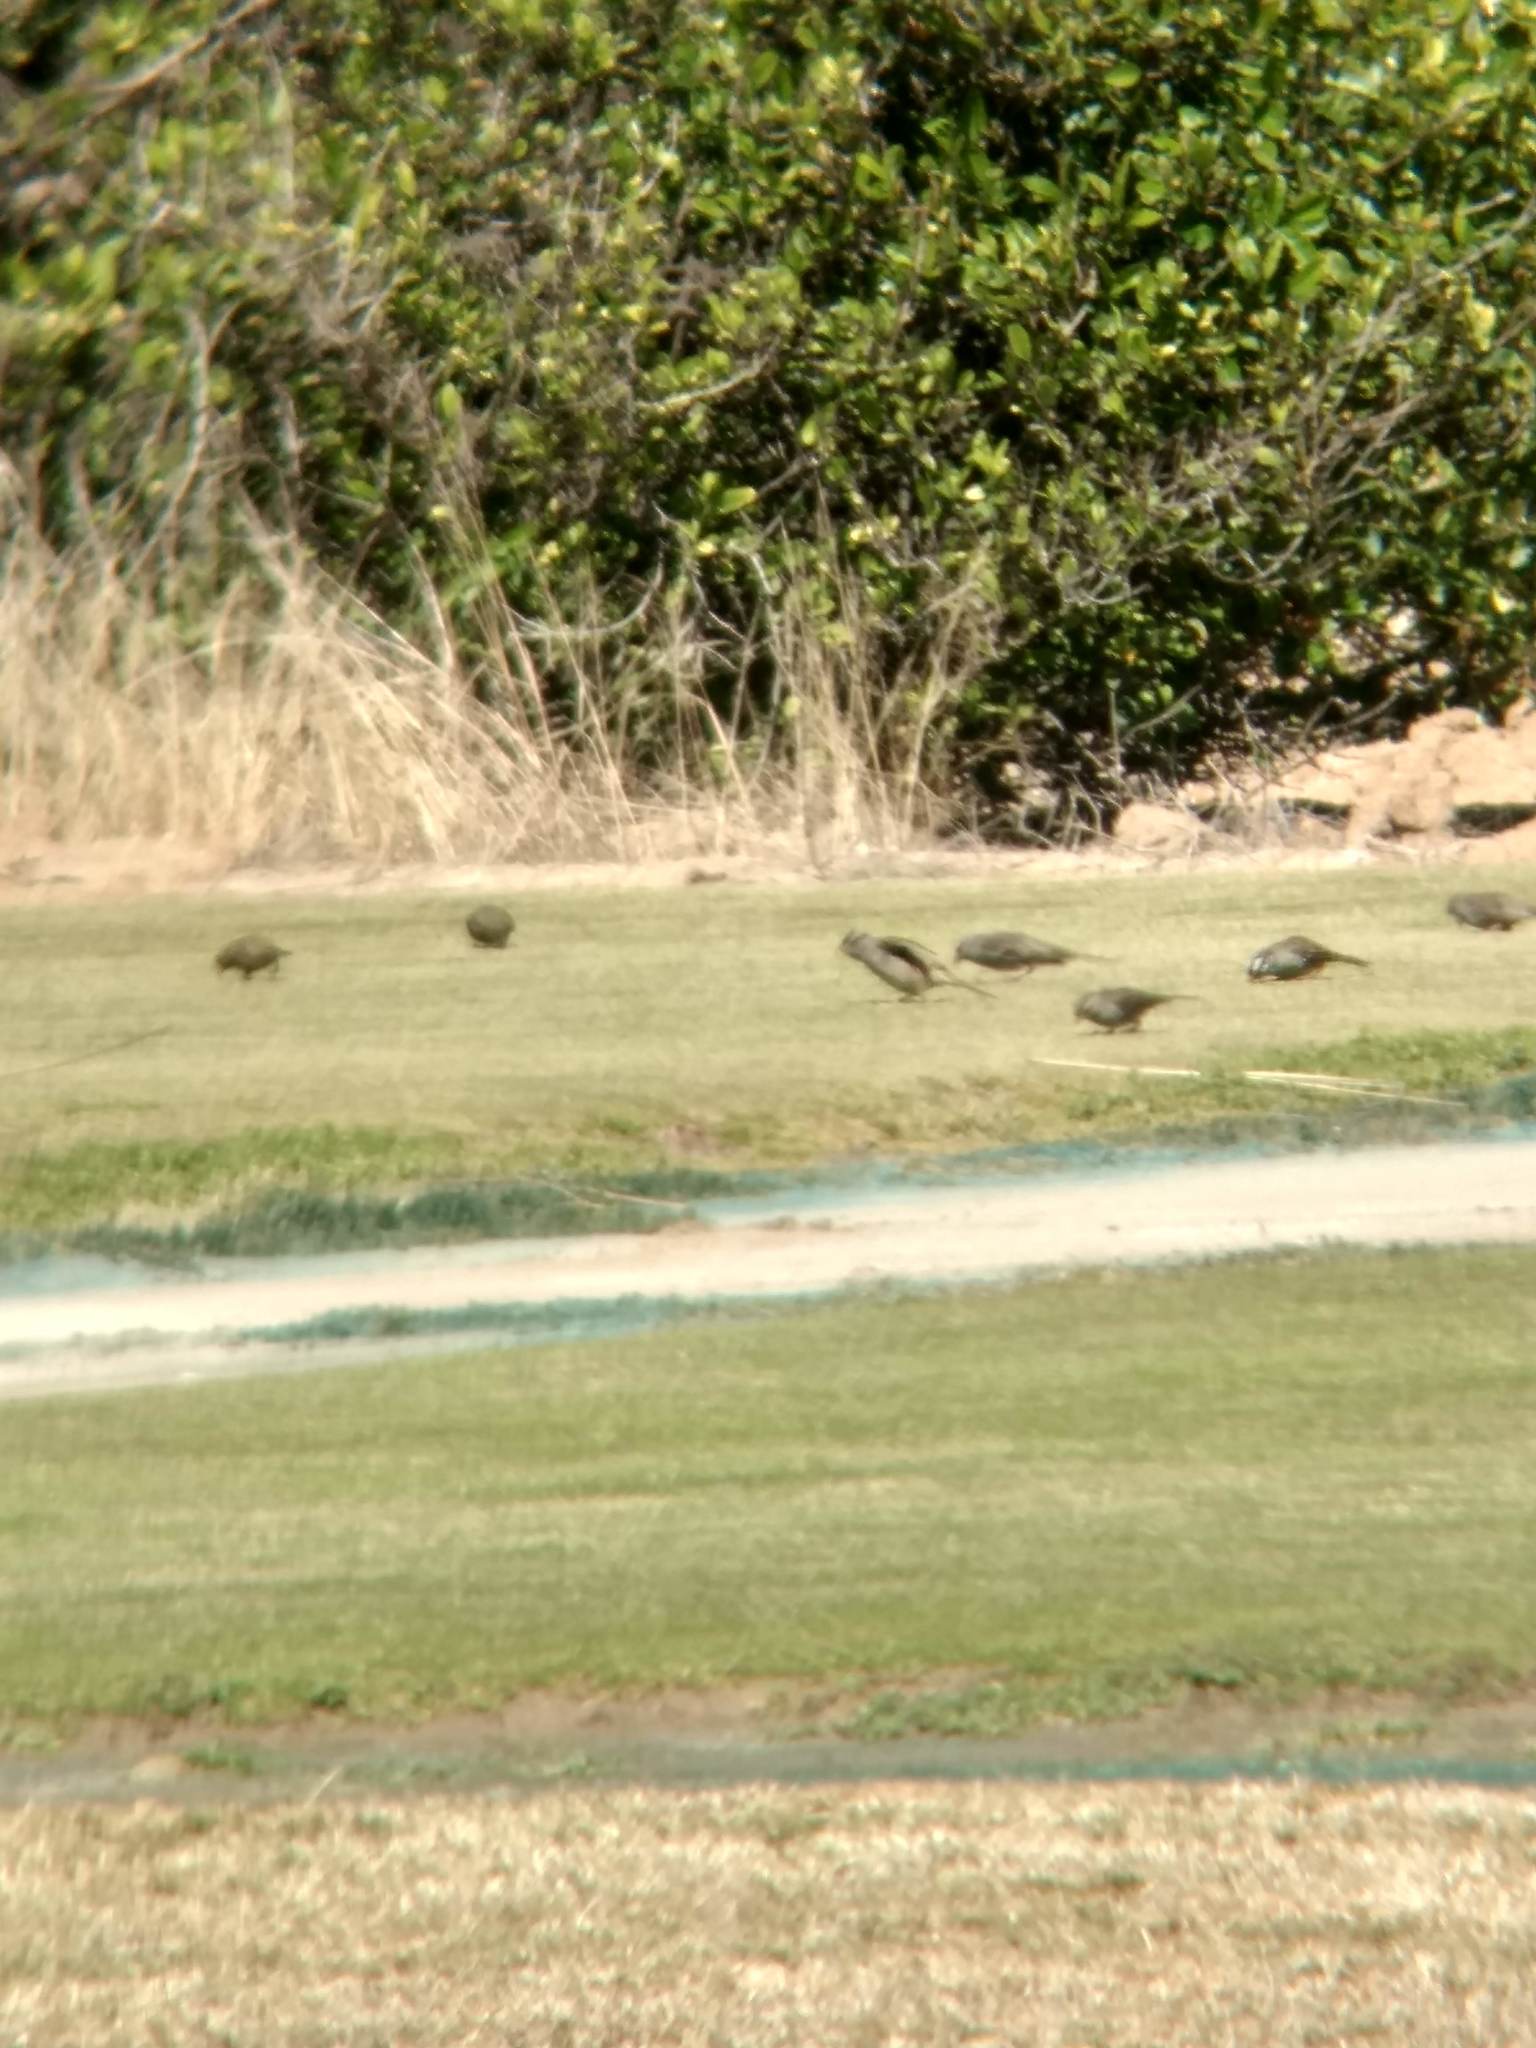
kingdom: Animalia
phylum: Chordata
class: Aves
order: Passeriformes
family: Passerellidae
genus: Zonotrichia
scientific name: Zonotrichia leucophrys
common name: White-crowned sparrow
